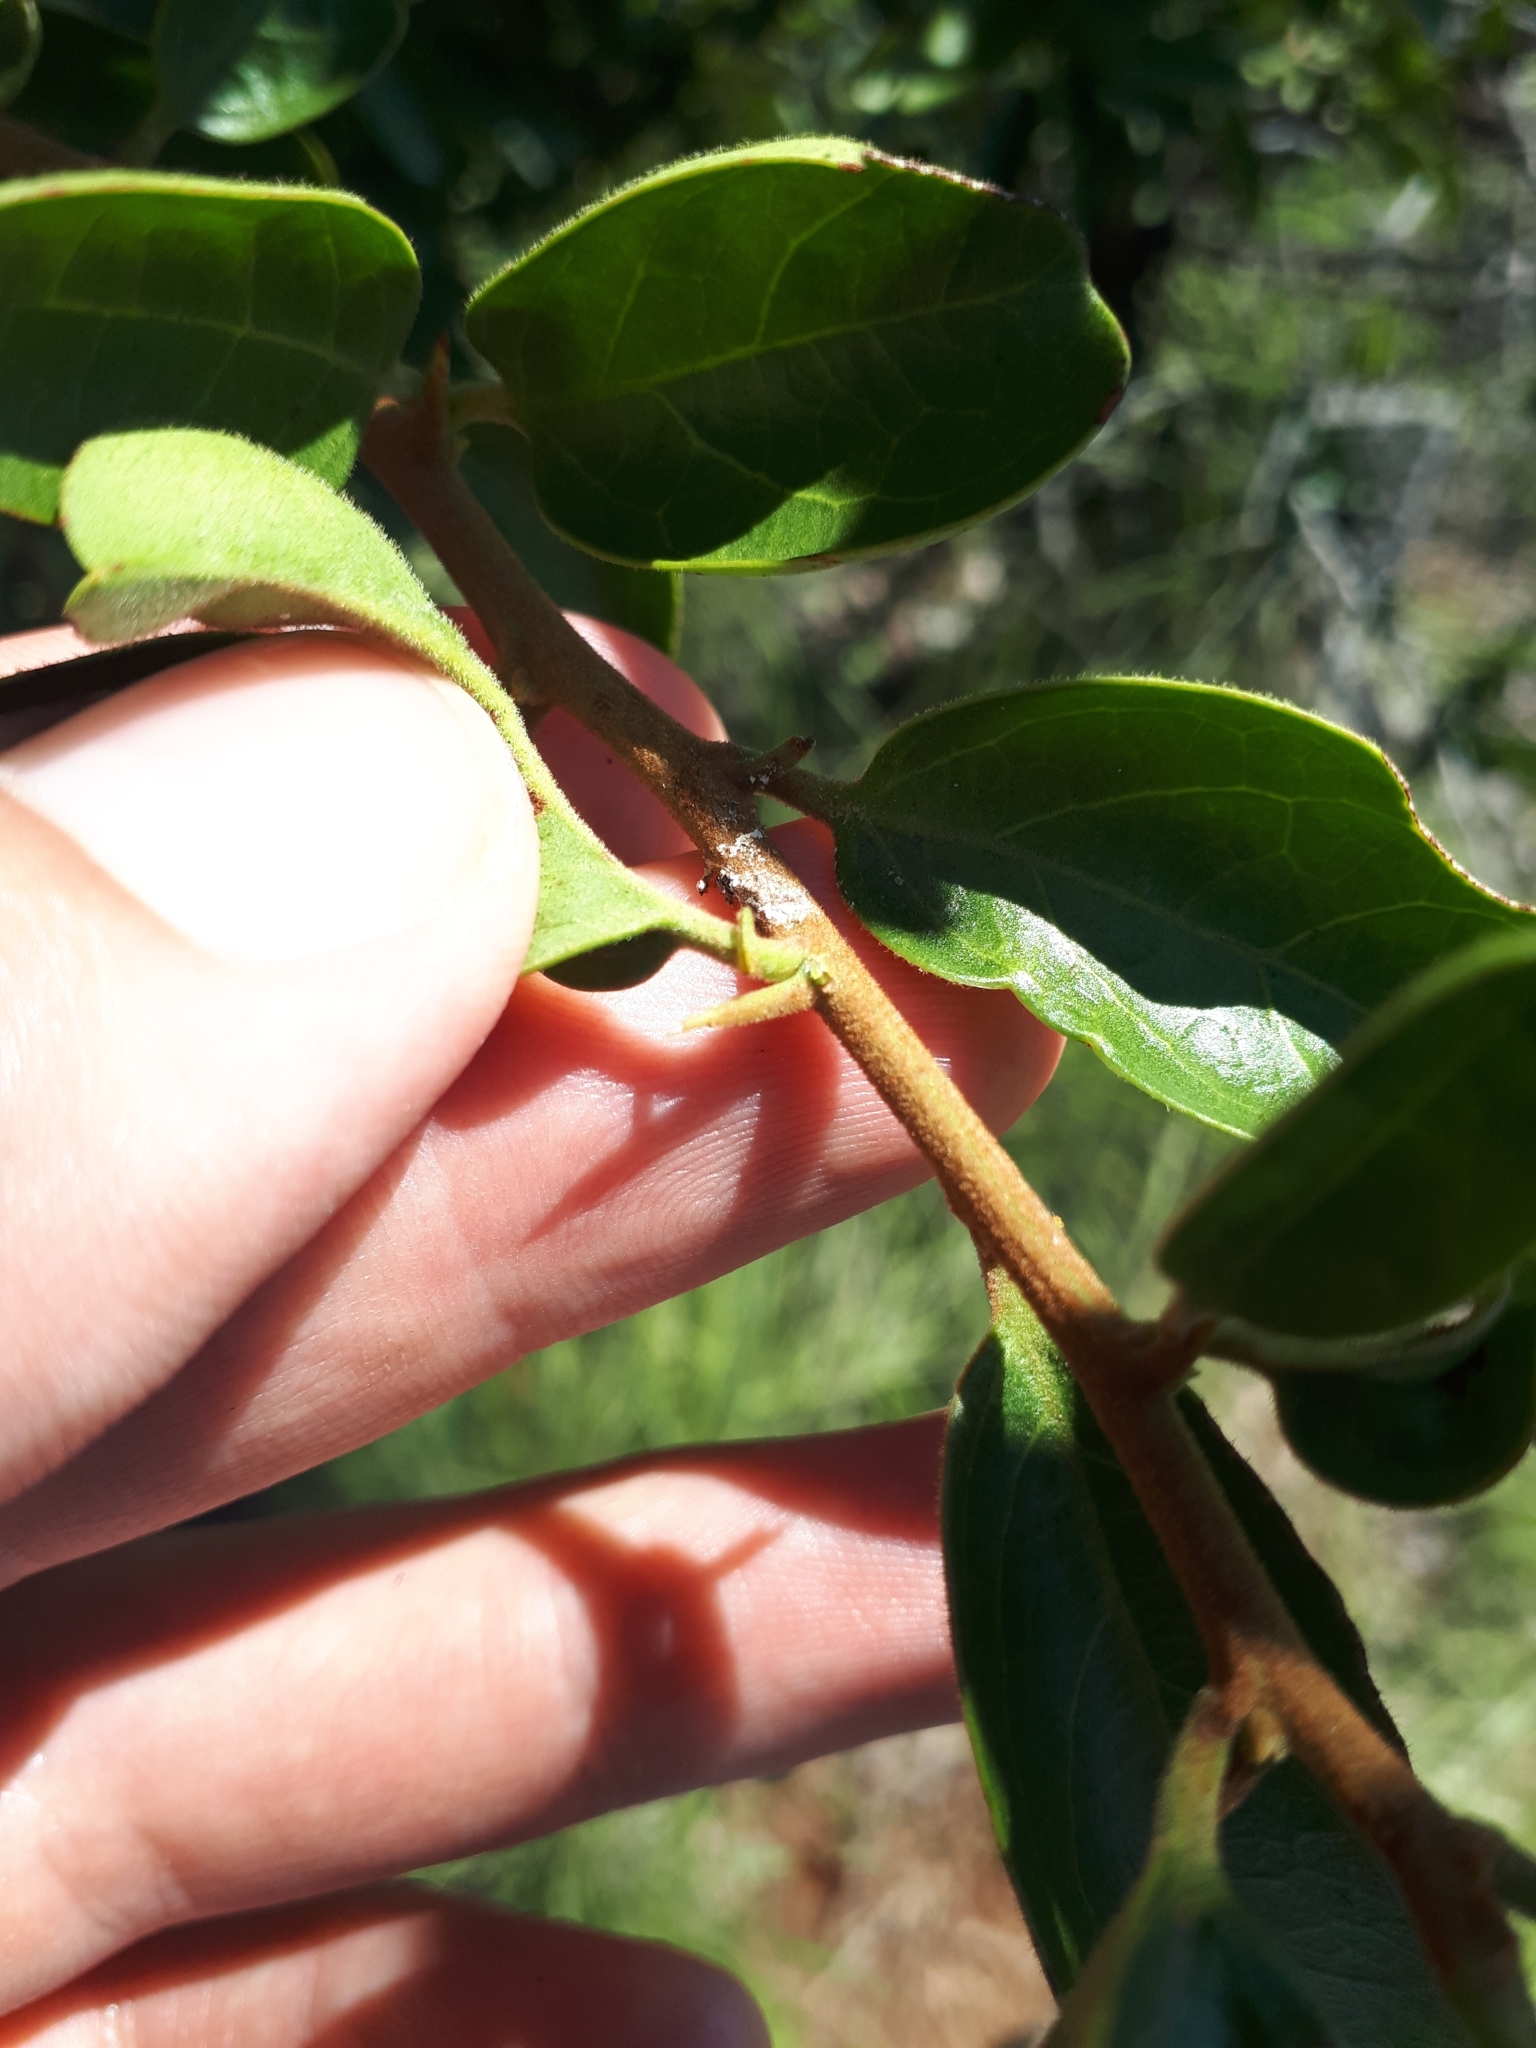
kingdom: Plantae
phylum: Tracheophyta
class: Magnoliopsida
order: Santalales
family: Ximeniaceae
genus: Ximenia
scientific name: Ximenia caffra
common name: Large sourplum
